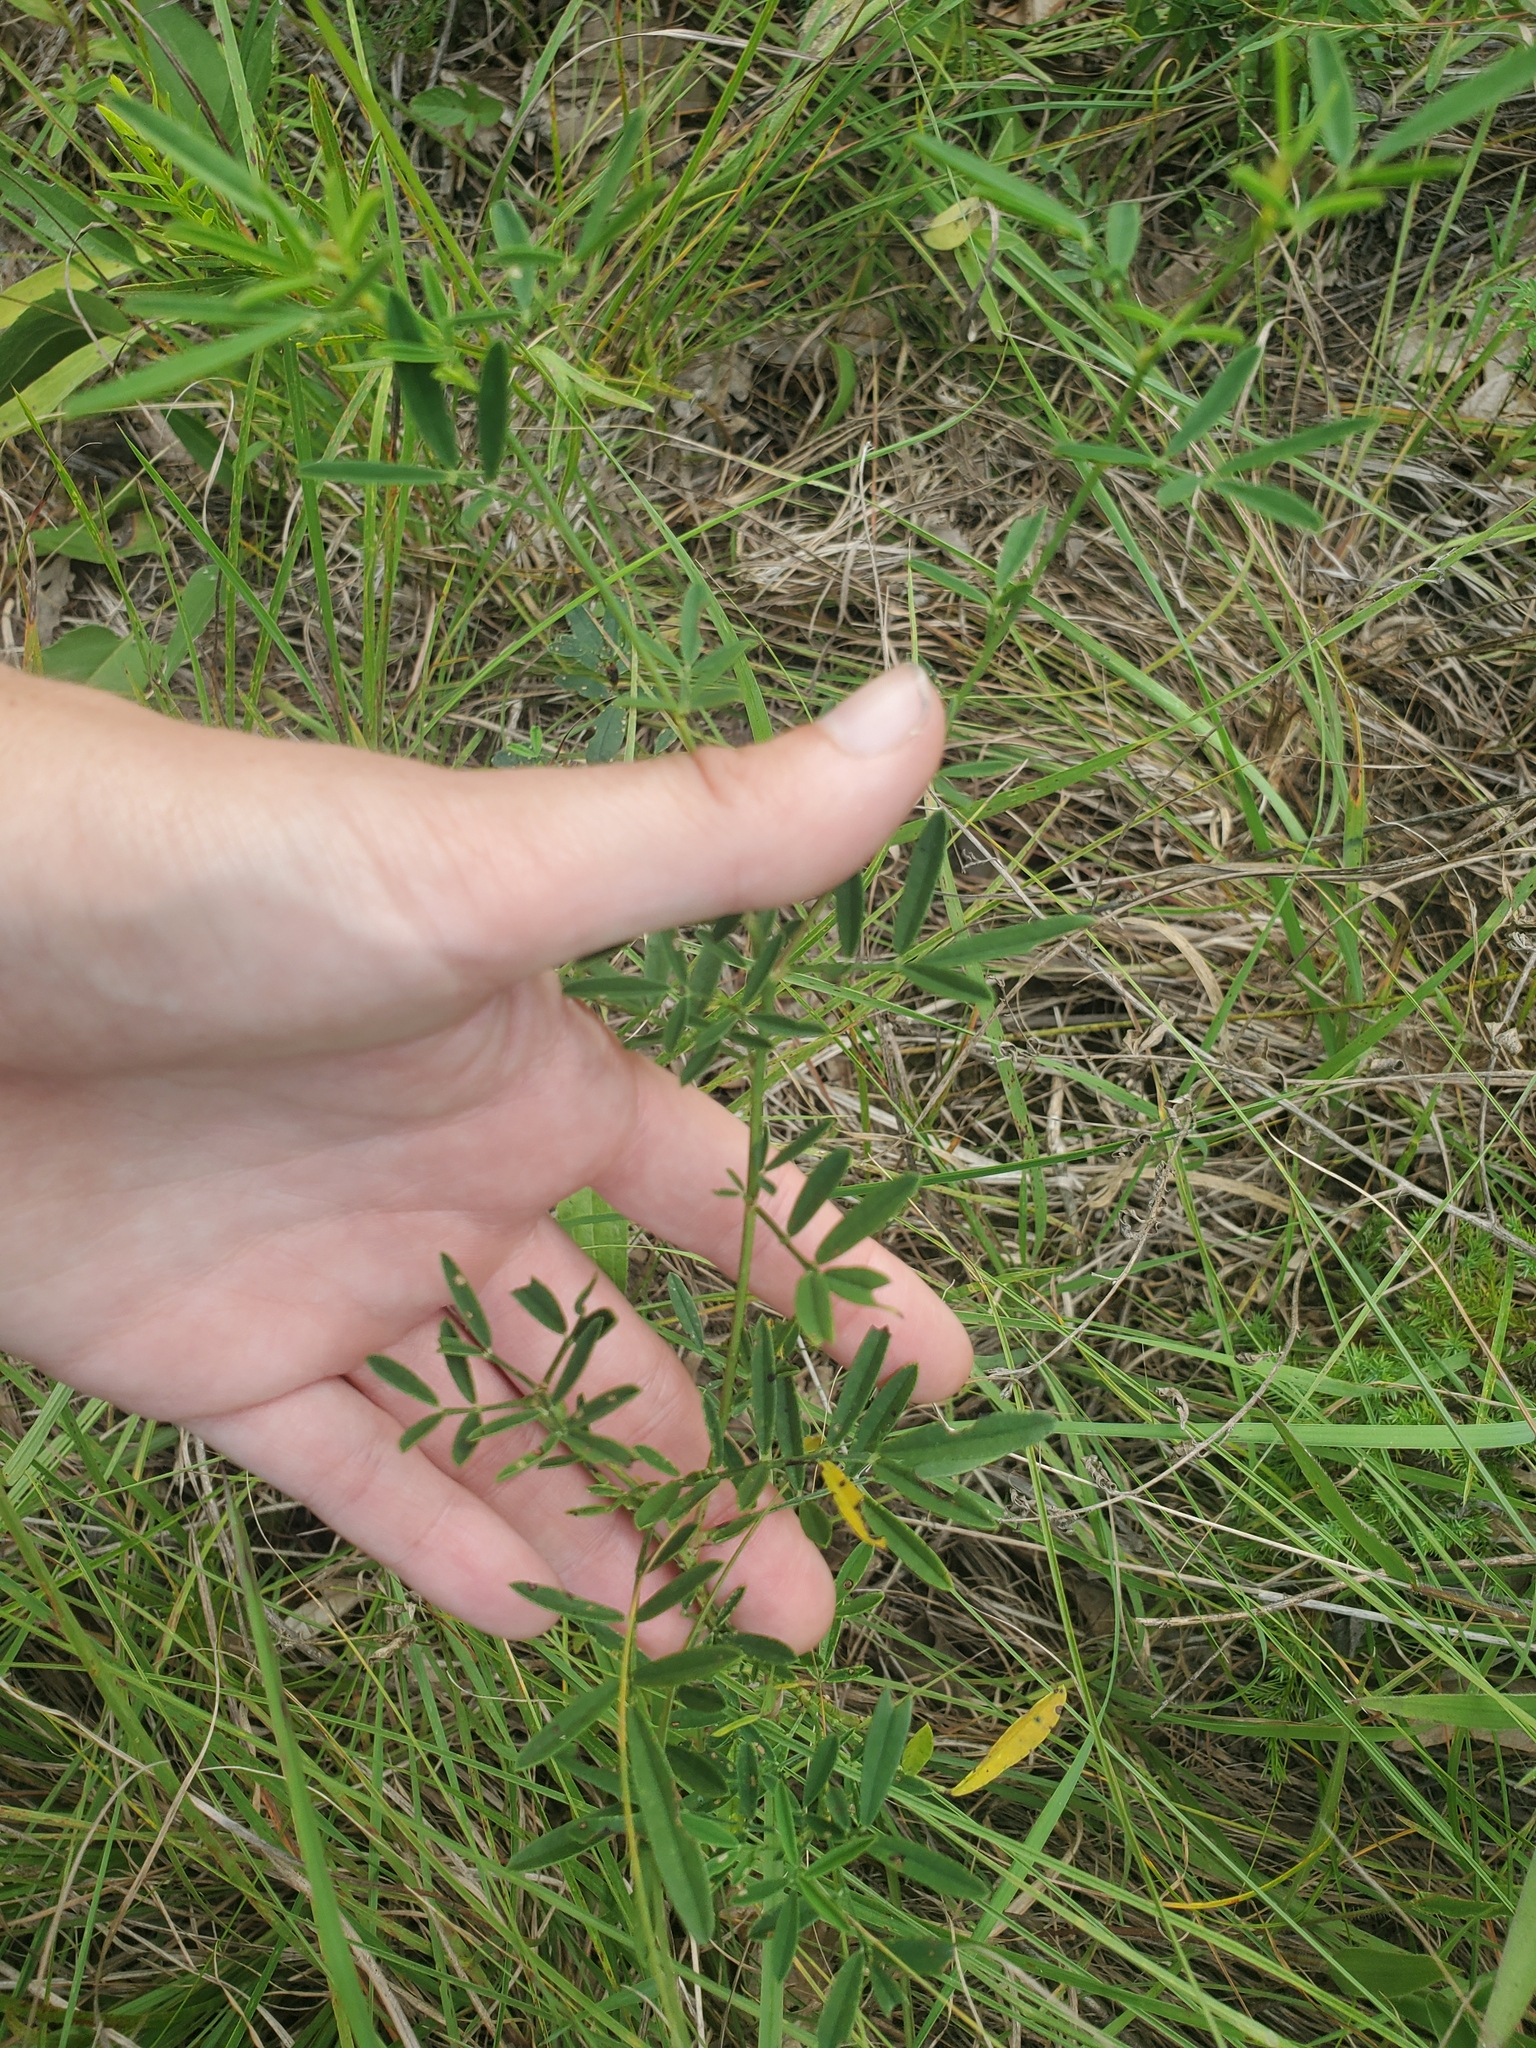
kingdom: Plantae
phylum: Tracheophyta
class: Magnoliopsida
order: Fabales
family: Fabaceae
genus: Dalea
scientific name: Dalea candida
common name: White prairie-clover
